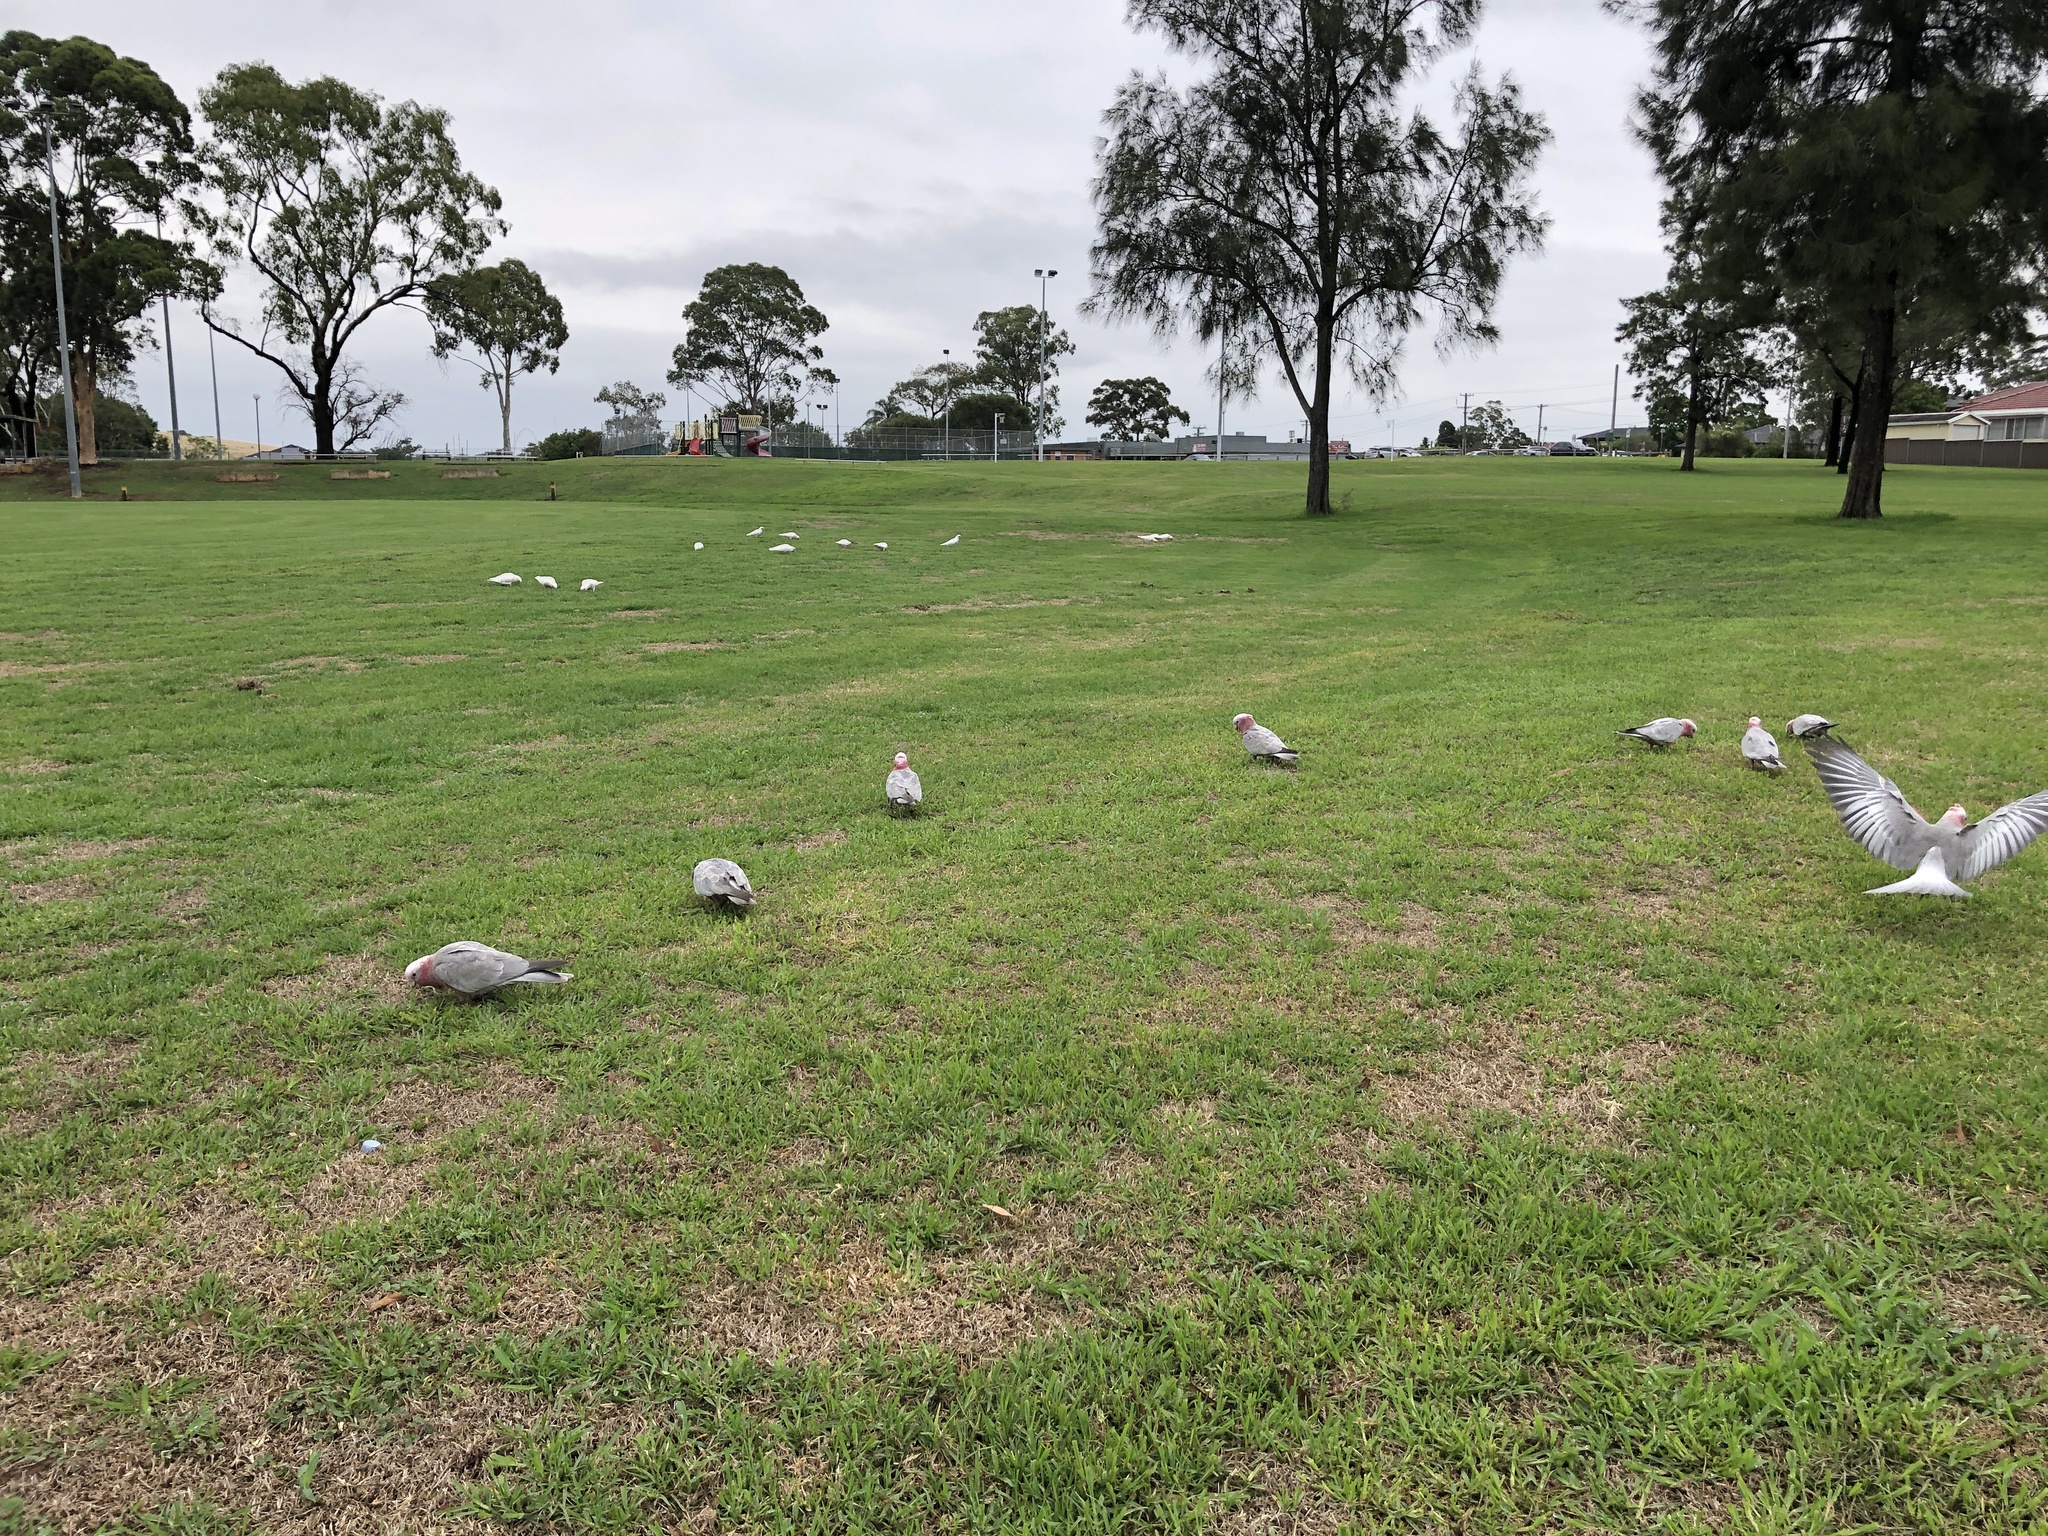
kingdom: Animalia
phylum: Chordata
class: Aves
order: Psittaciformes
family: Psittacidae
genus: Eolophus
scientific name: Eolophus roseicapilla
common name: Galah
